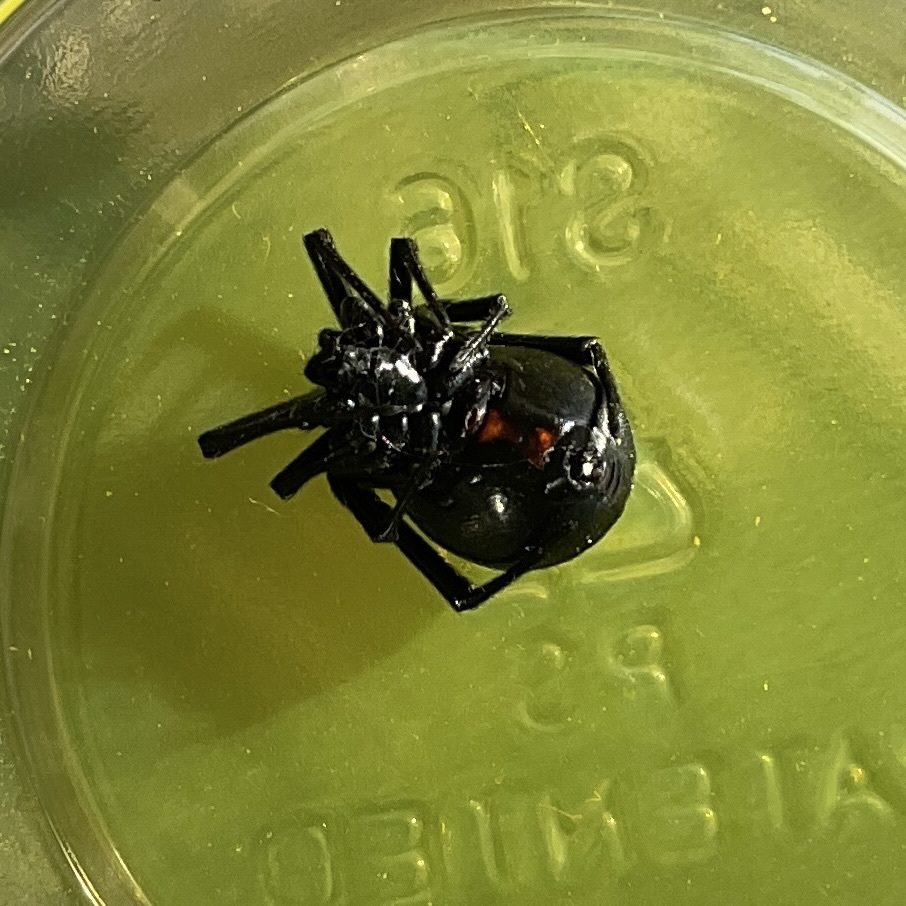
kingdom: Animalia
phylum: Arthropoda
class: Arachnida
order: Araneae
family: Theridiidae
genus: Latrodectus
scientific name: Latrodectus hesperus
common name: Western black widow
